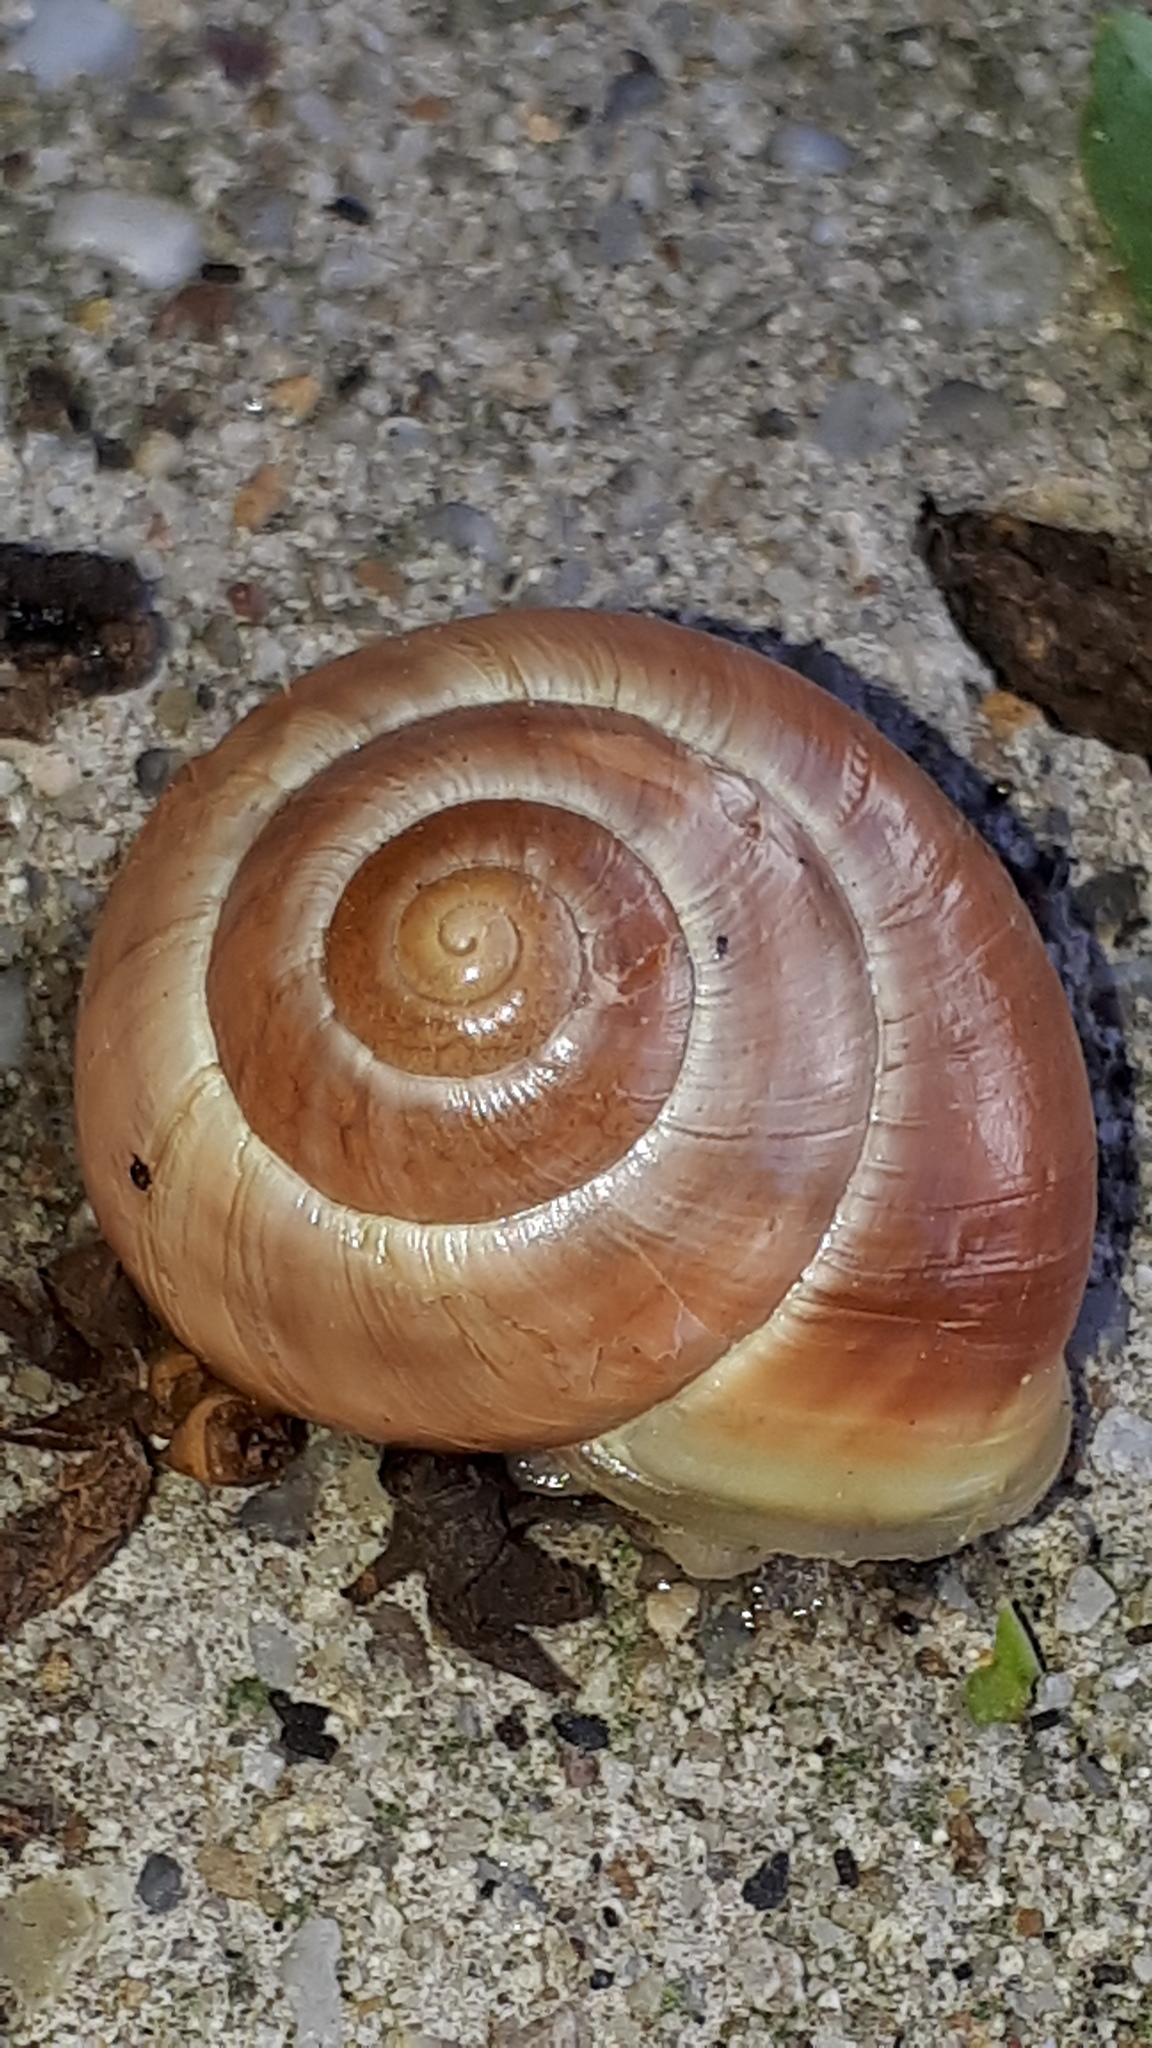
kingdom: Animalia
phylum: Mollusca
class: Gastropoda
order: Stylommatophora
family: Helicidae
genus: Cepaea
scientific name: Cepaea hortensis
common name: White-lip gardensnail
